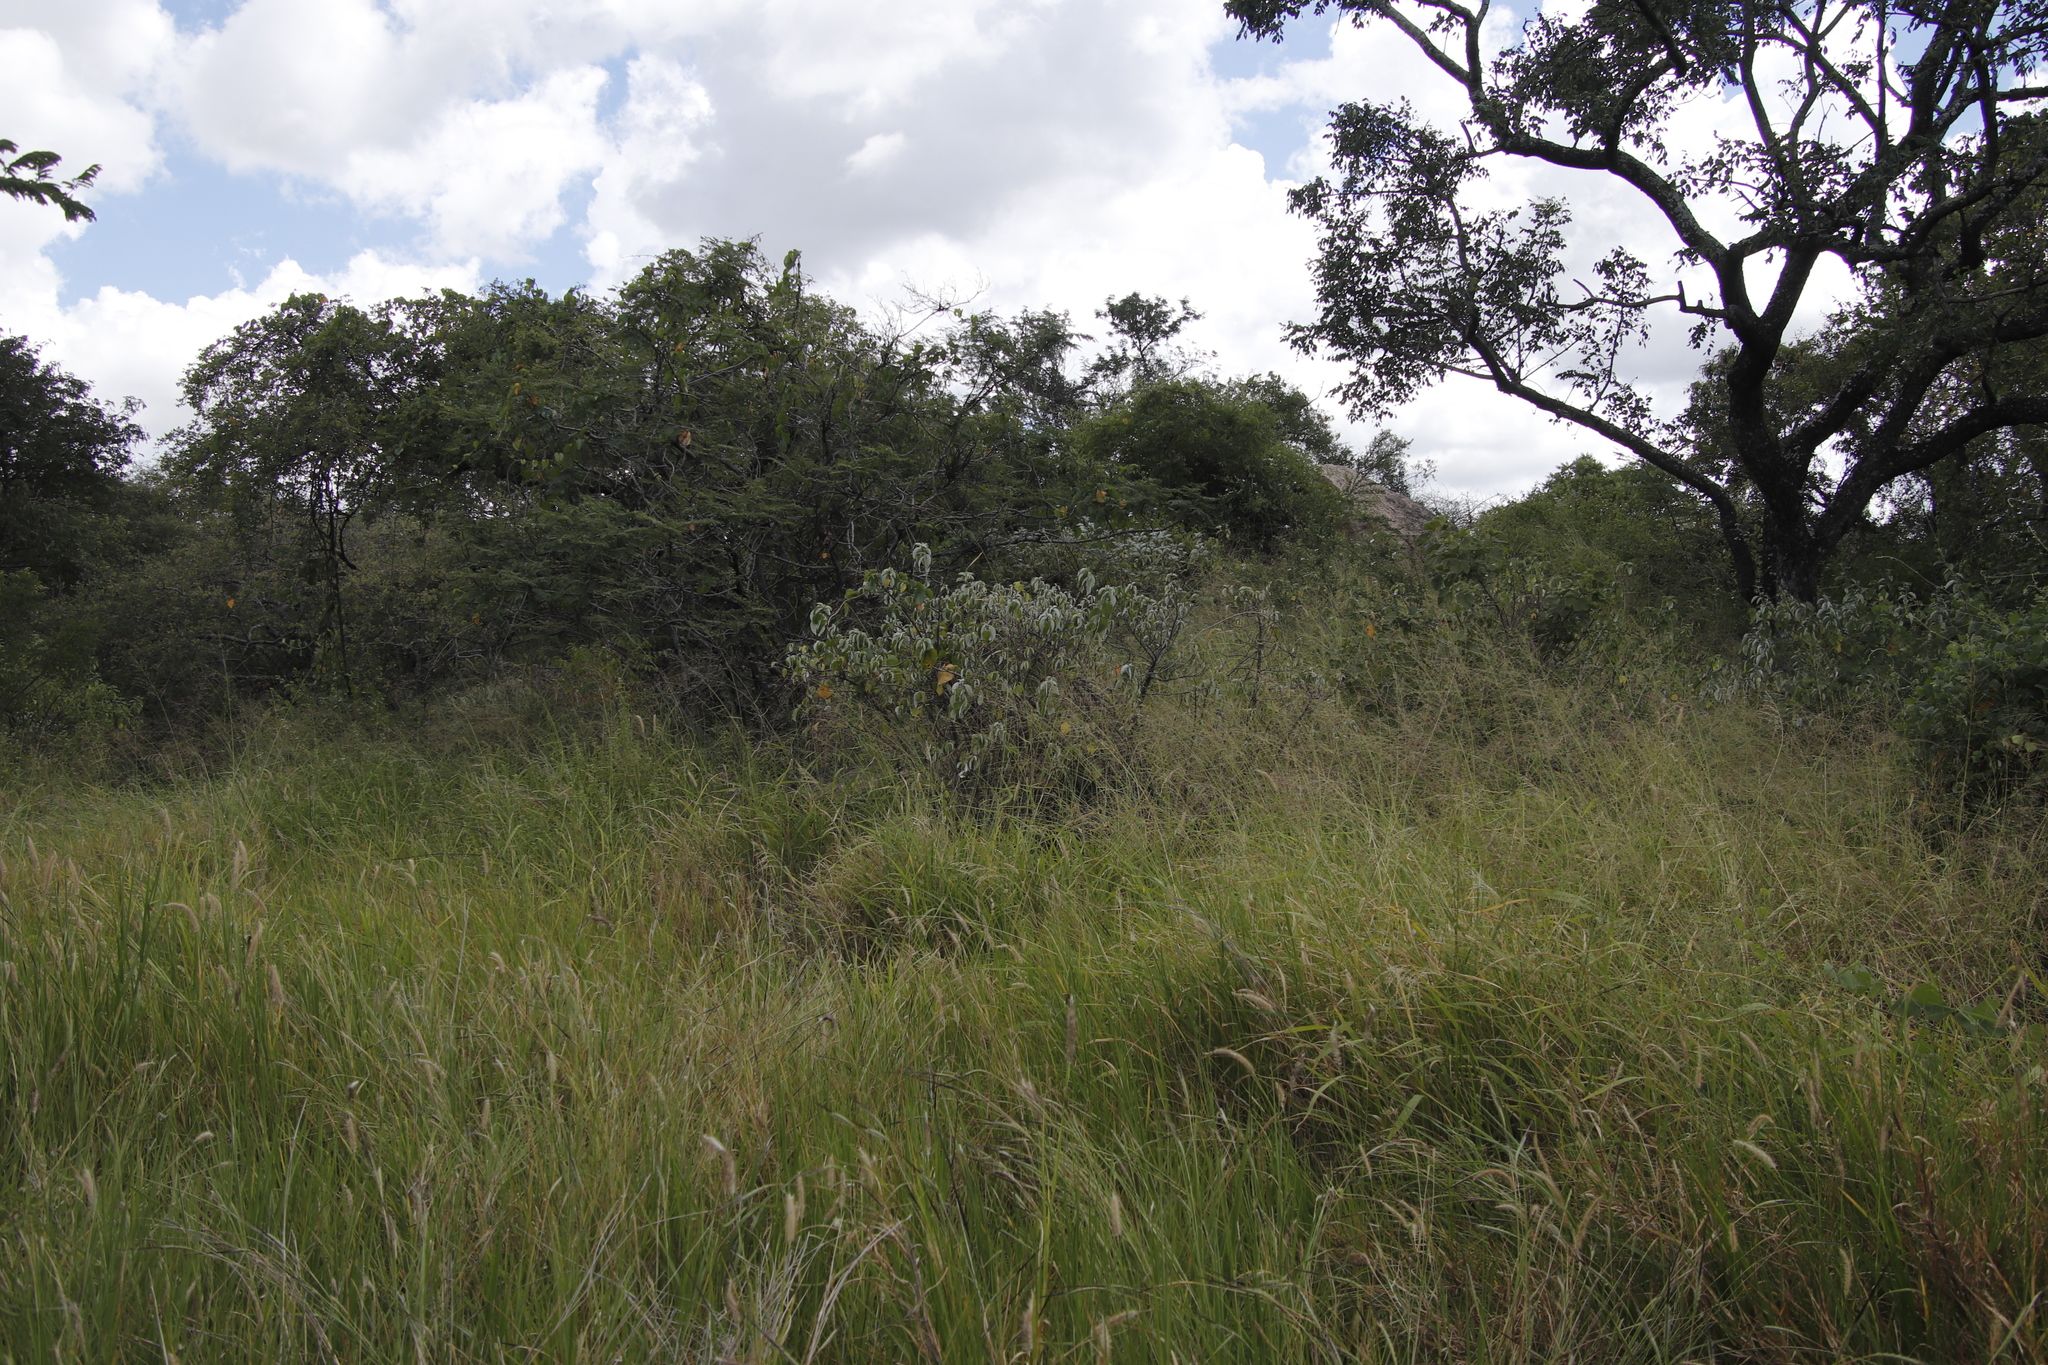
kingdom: Plantae
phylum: Tracheophyta
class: Magnoliopsida
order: Rosales
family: Urticaceae
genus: Pouzolzia
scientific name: Pouzolzia mixta
